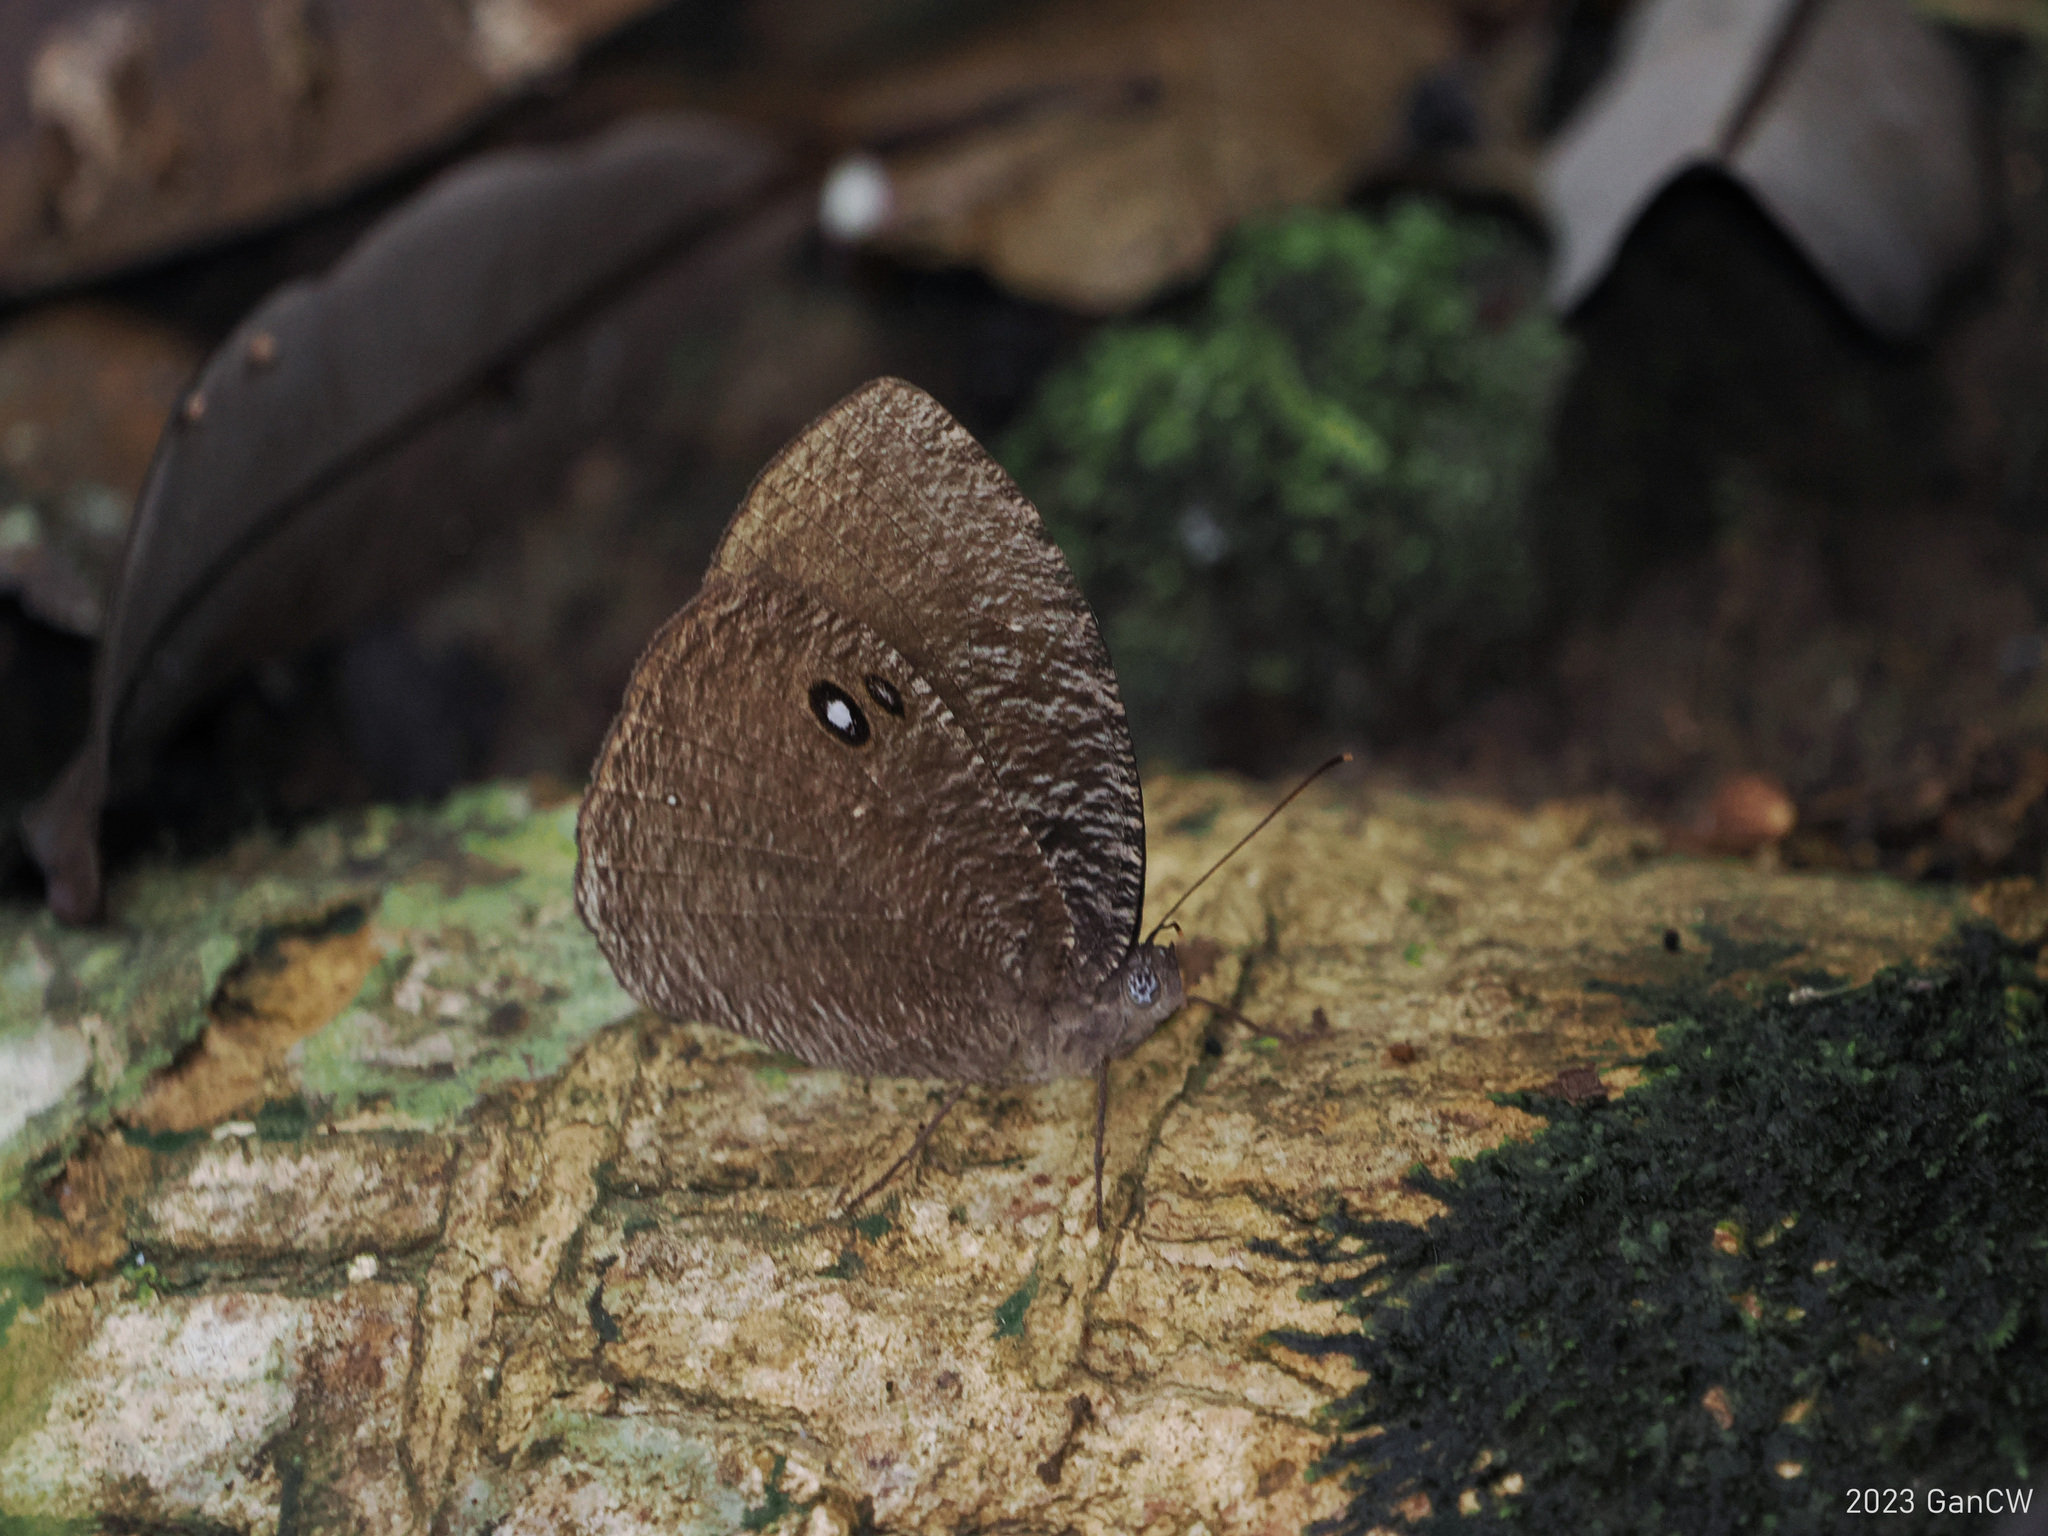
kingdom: Animalia
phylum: Arthropoda
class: Insecta
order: Lepidoptera
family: Nymphalidae
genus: Bletogona
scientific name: Bletogona mycalesis
